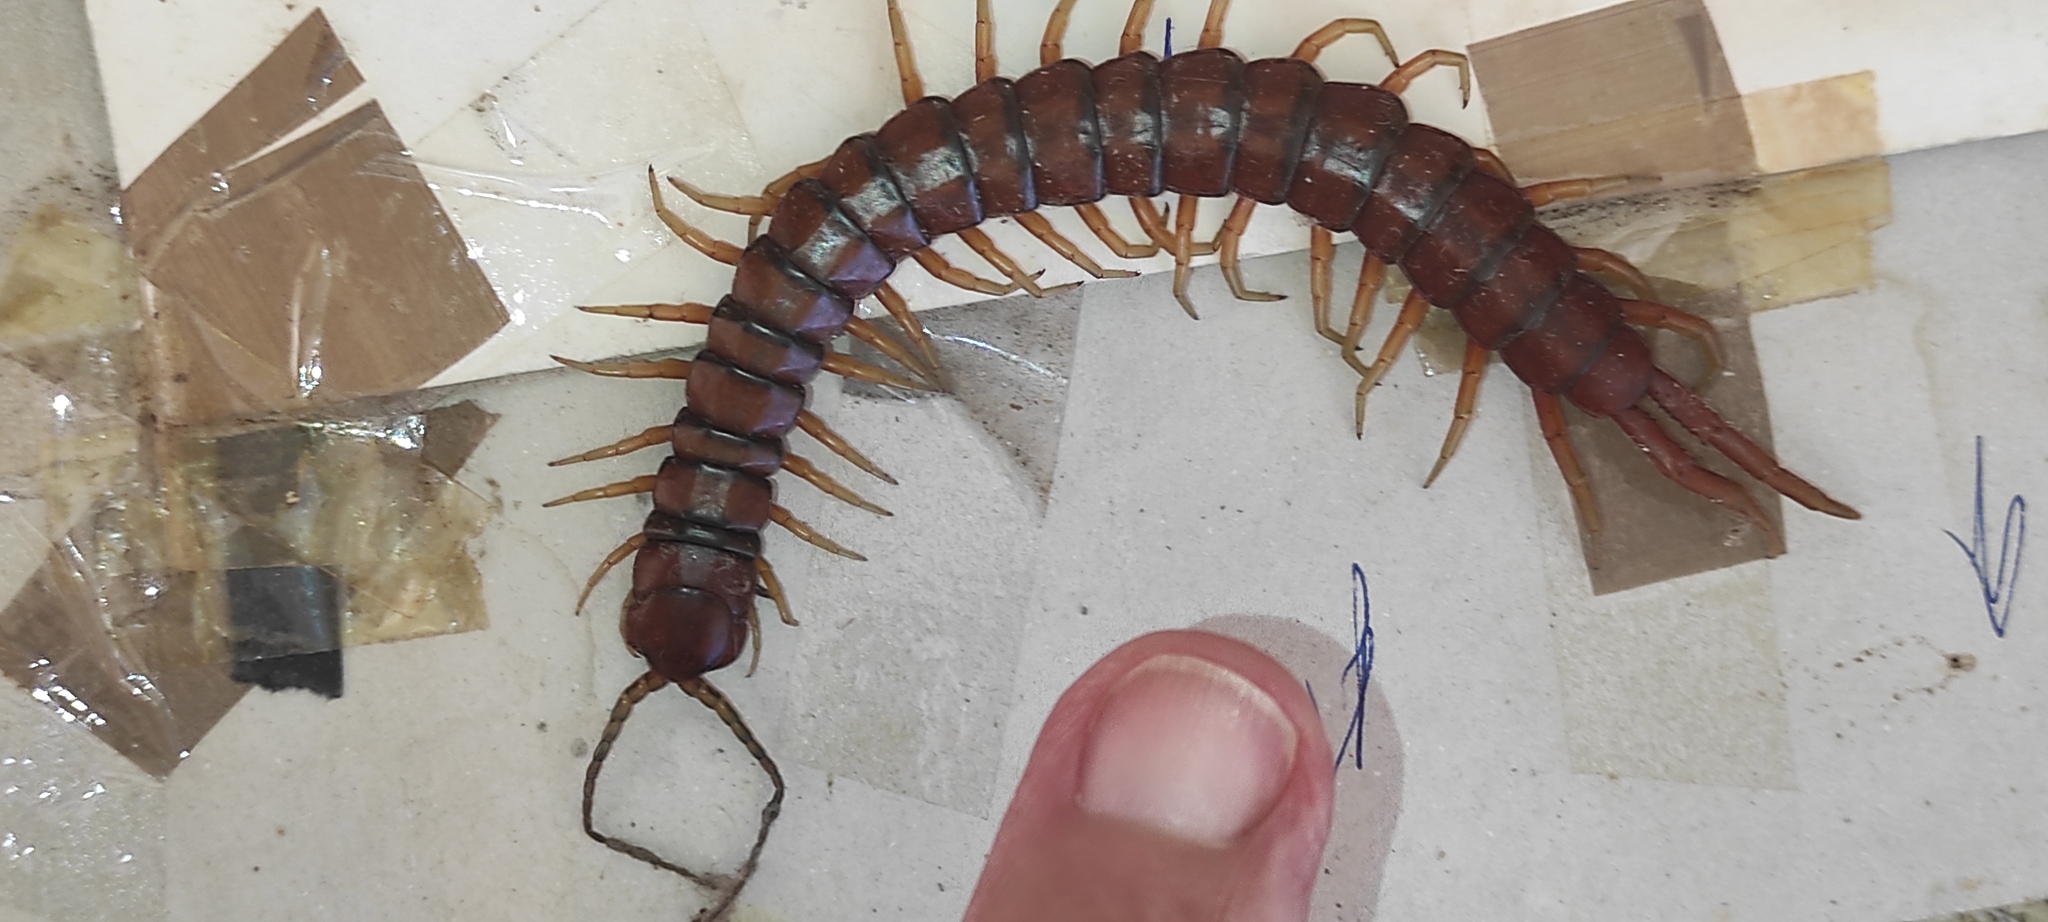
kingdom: Animalia
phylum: Arthropoda
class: Chilopoda
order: Scolopendromorpha
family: Scolopendridae
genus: Scolopendra
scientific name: Scolopendra alternans
